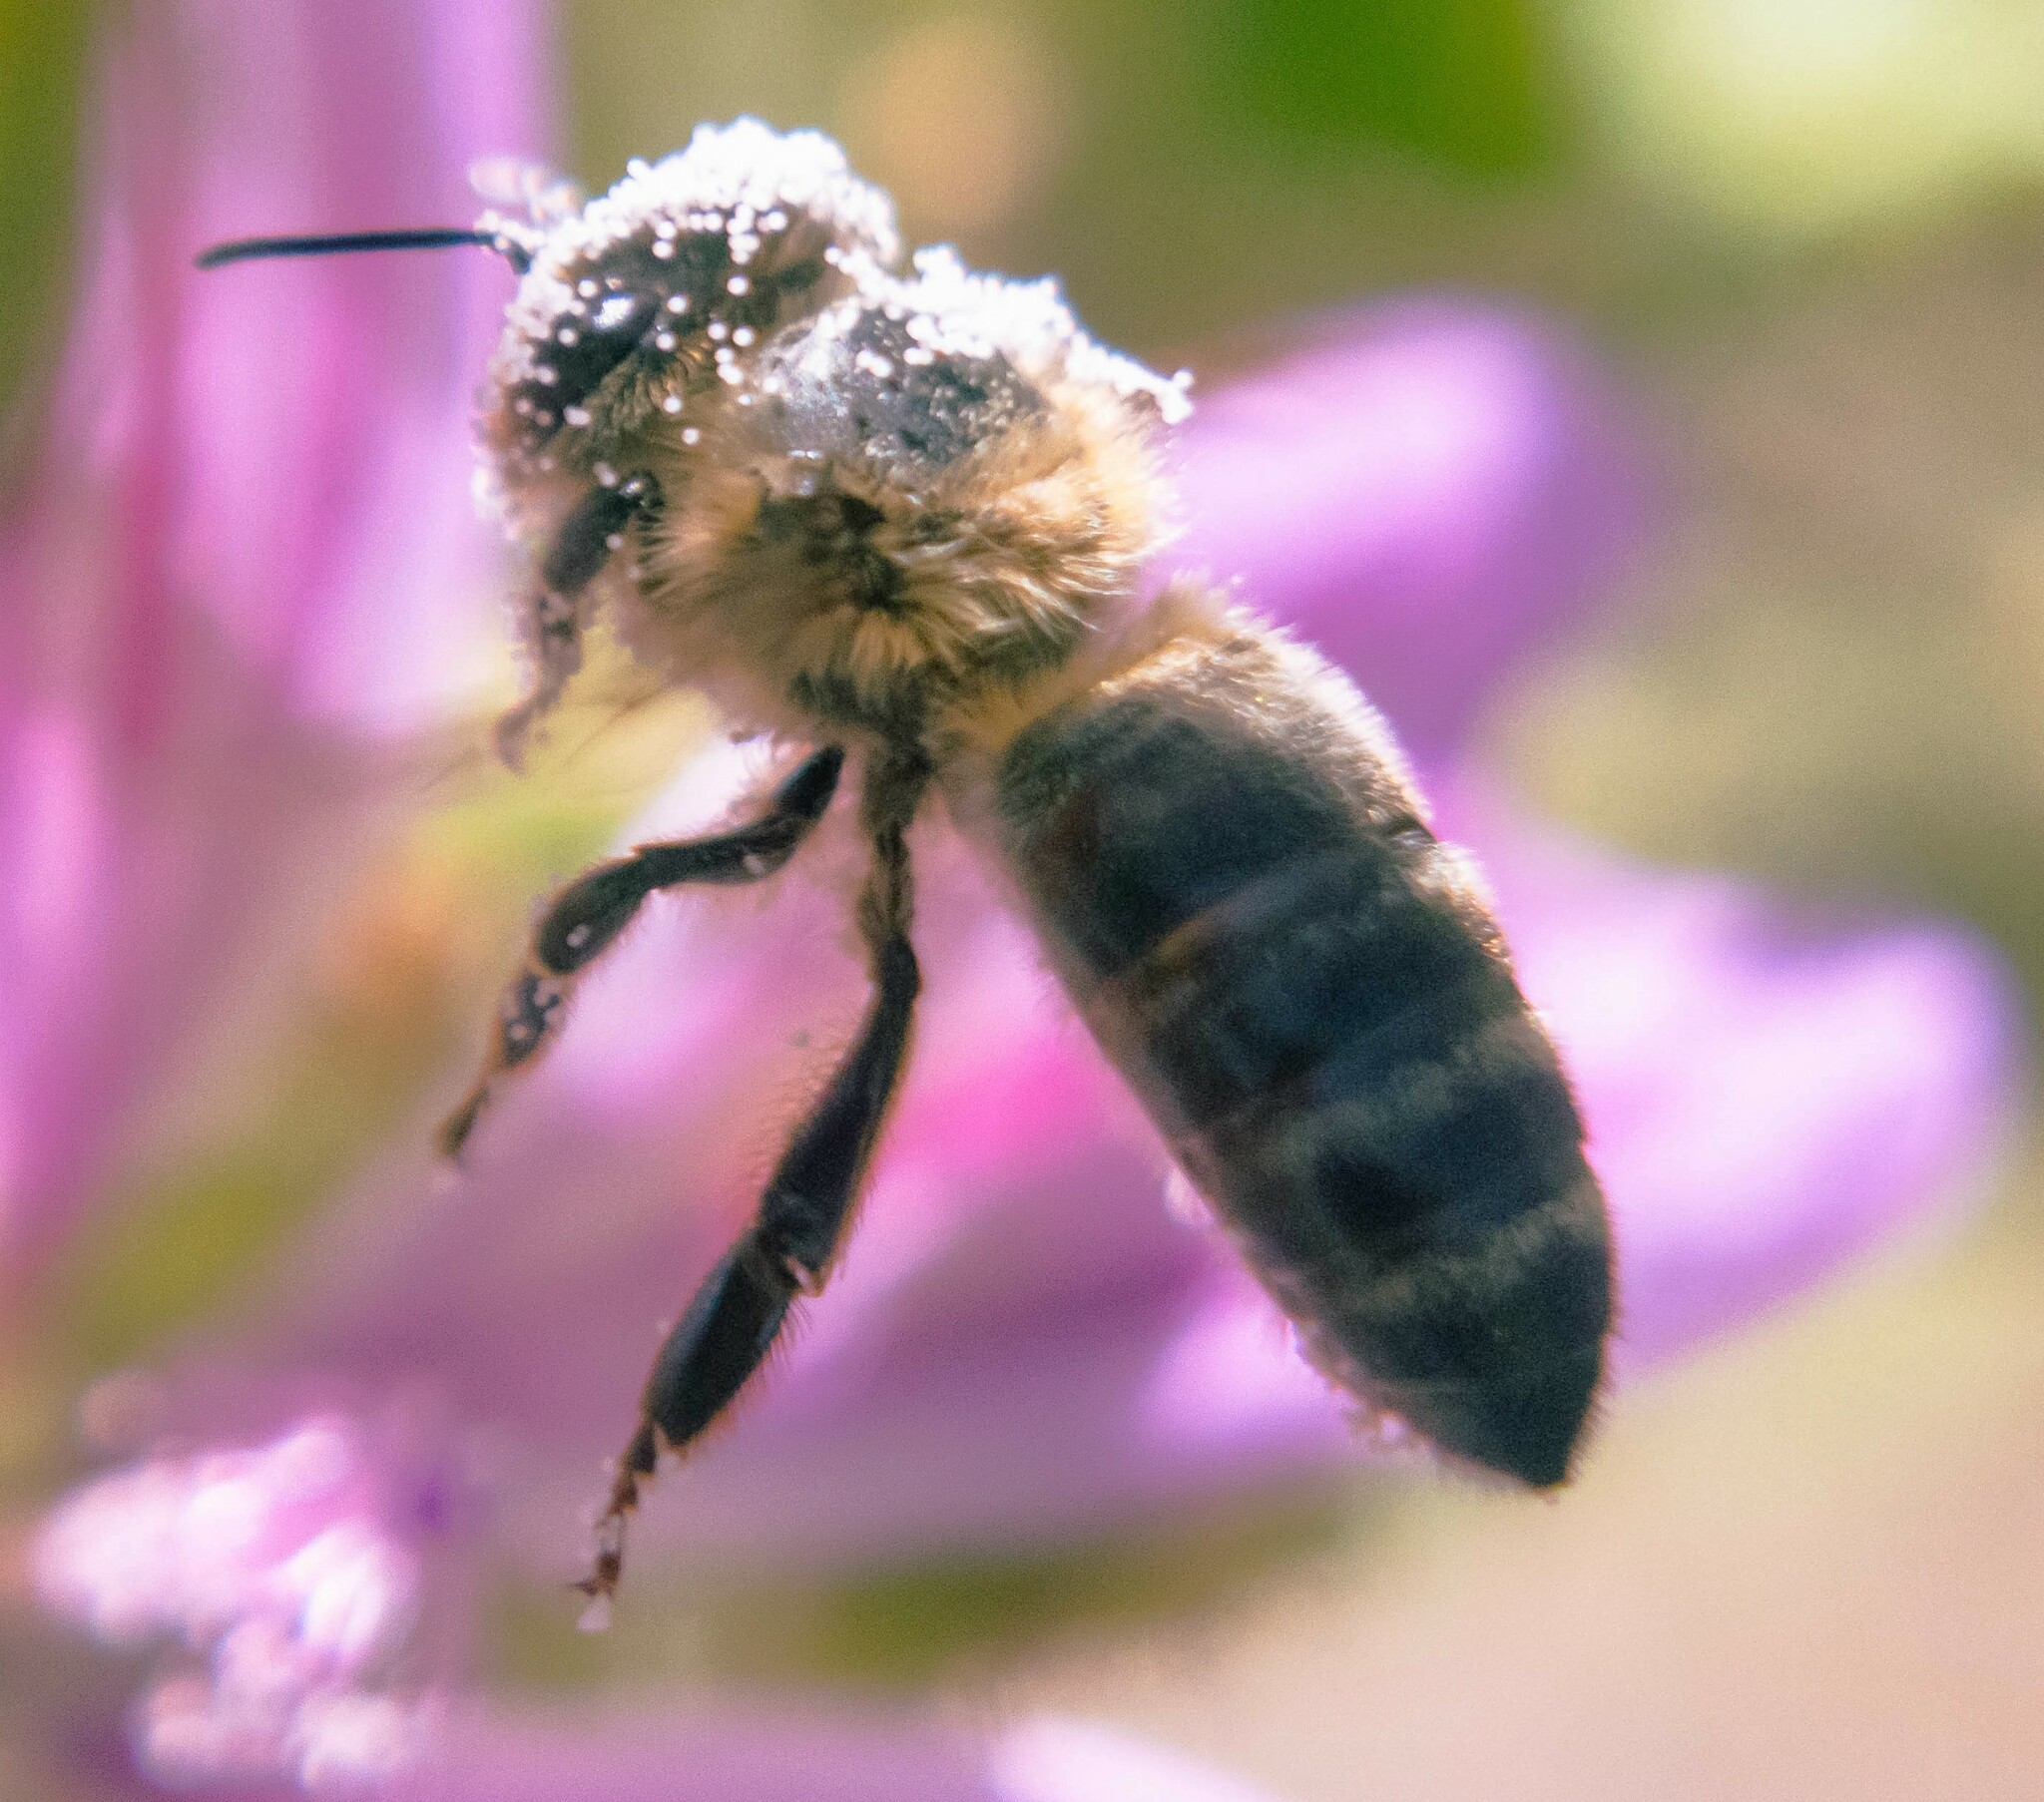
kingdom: Animalia
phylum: Arthropoda
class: Insecta
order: Hymenoptera
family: Apidae
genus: Apis
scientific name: Apis mellifera
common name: Honey bee
